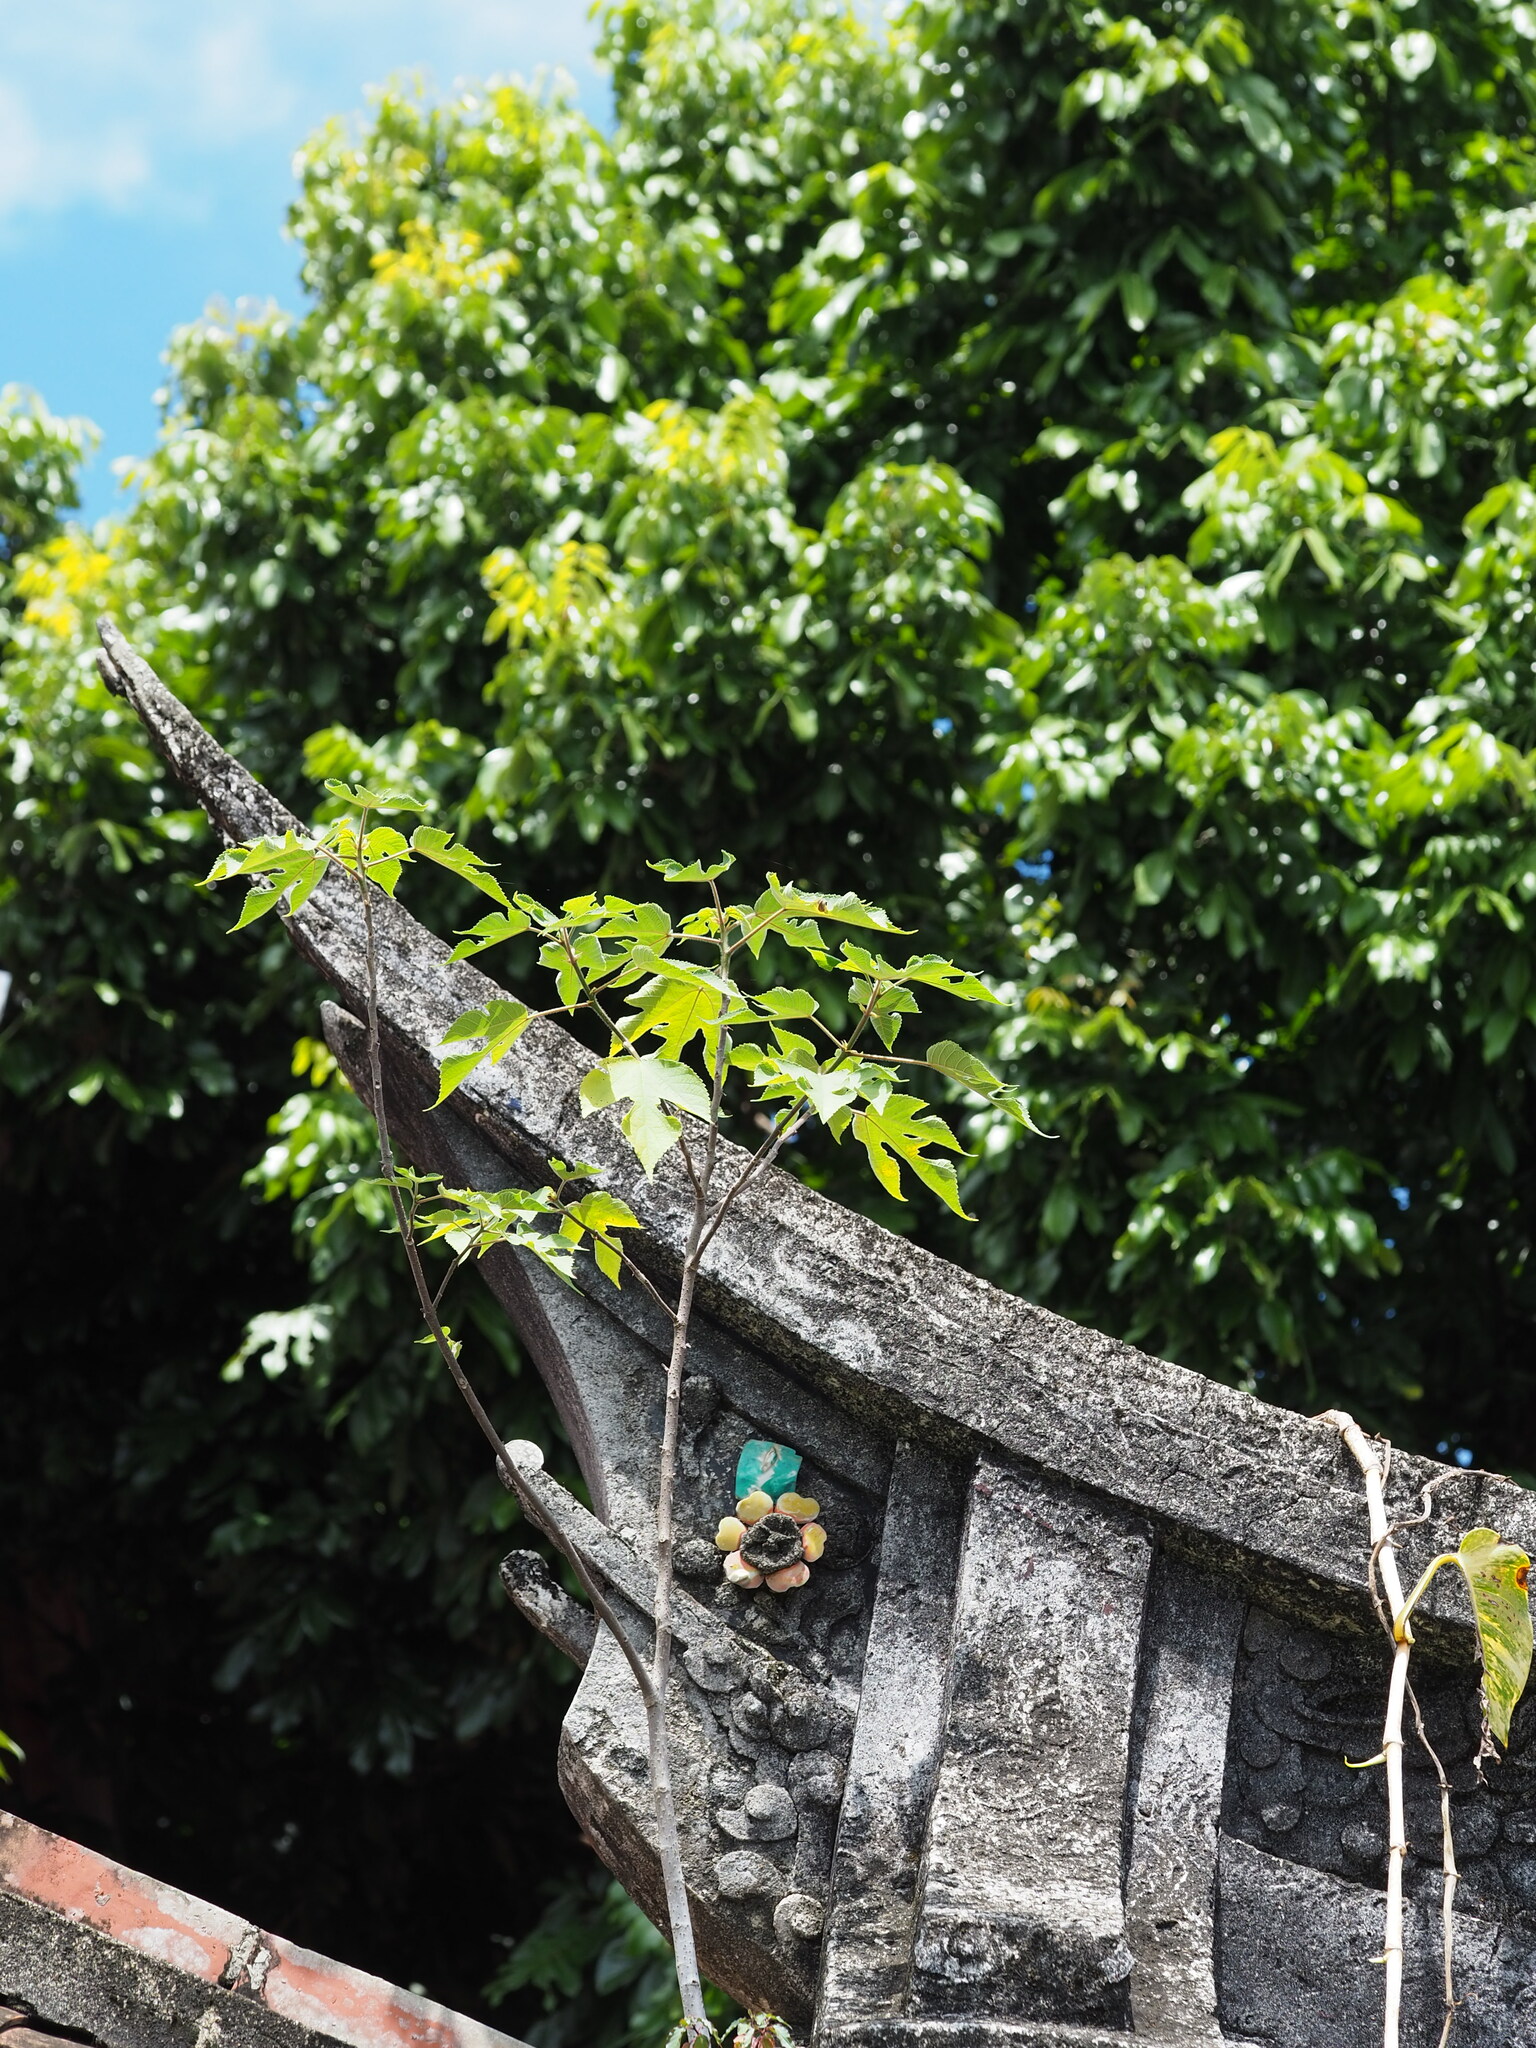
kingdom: Plantae
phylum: Tracheophyta
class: Magnoliopsida
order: Rosales
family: Moraceae
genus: Broussonetia
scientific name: Broussonetia papyrifera
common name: Paper mulberry
